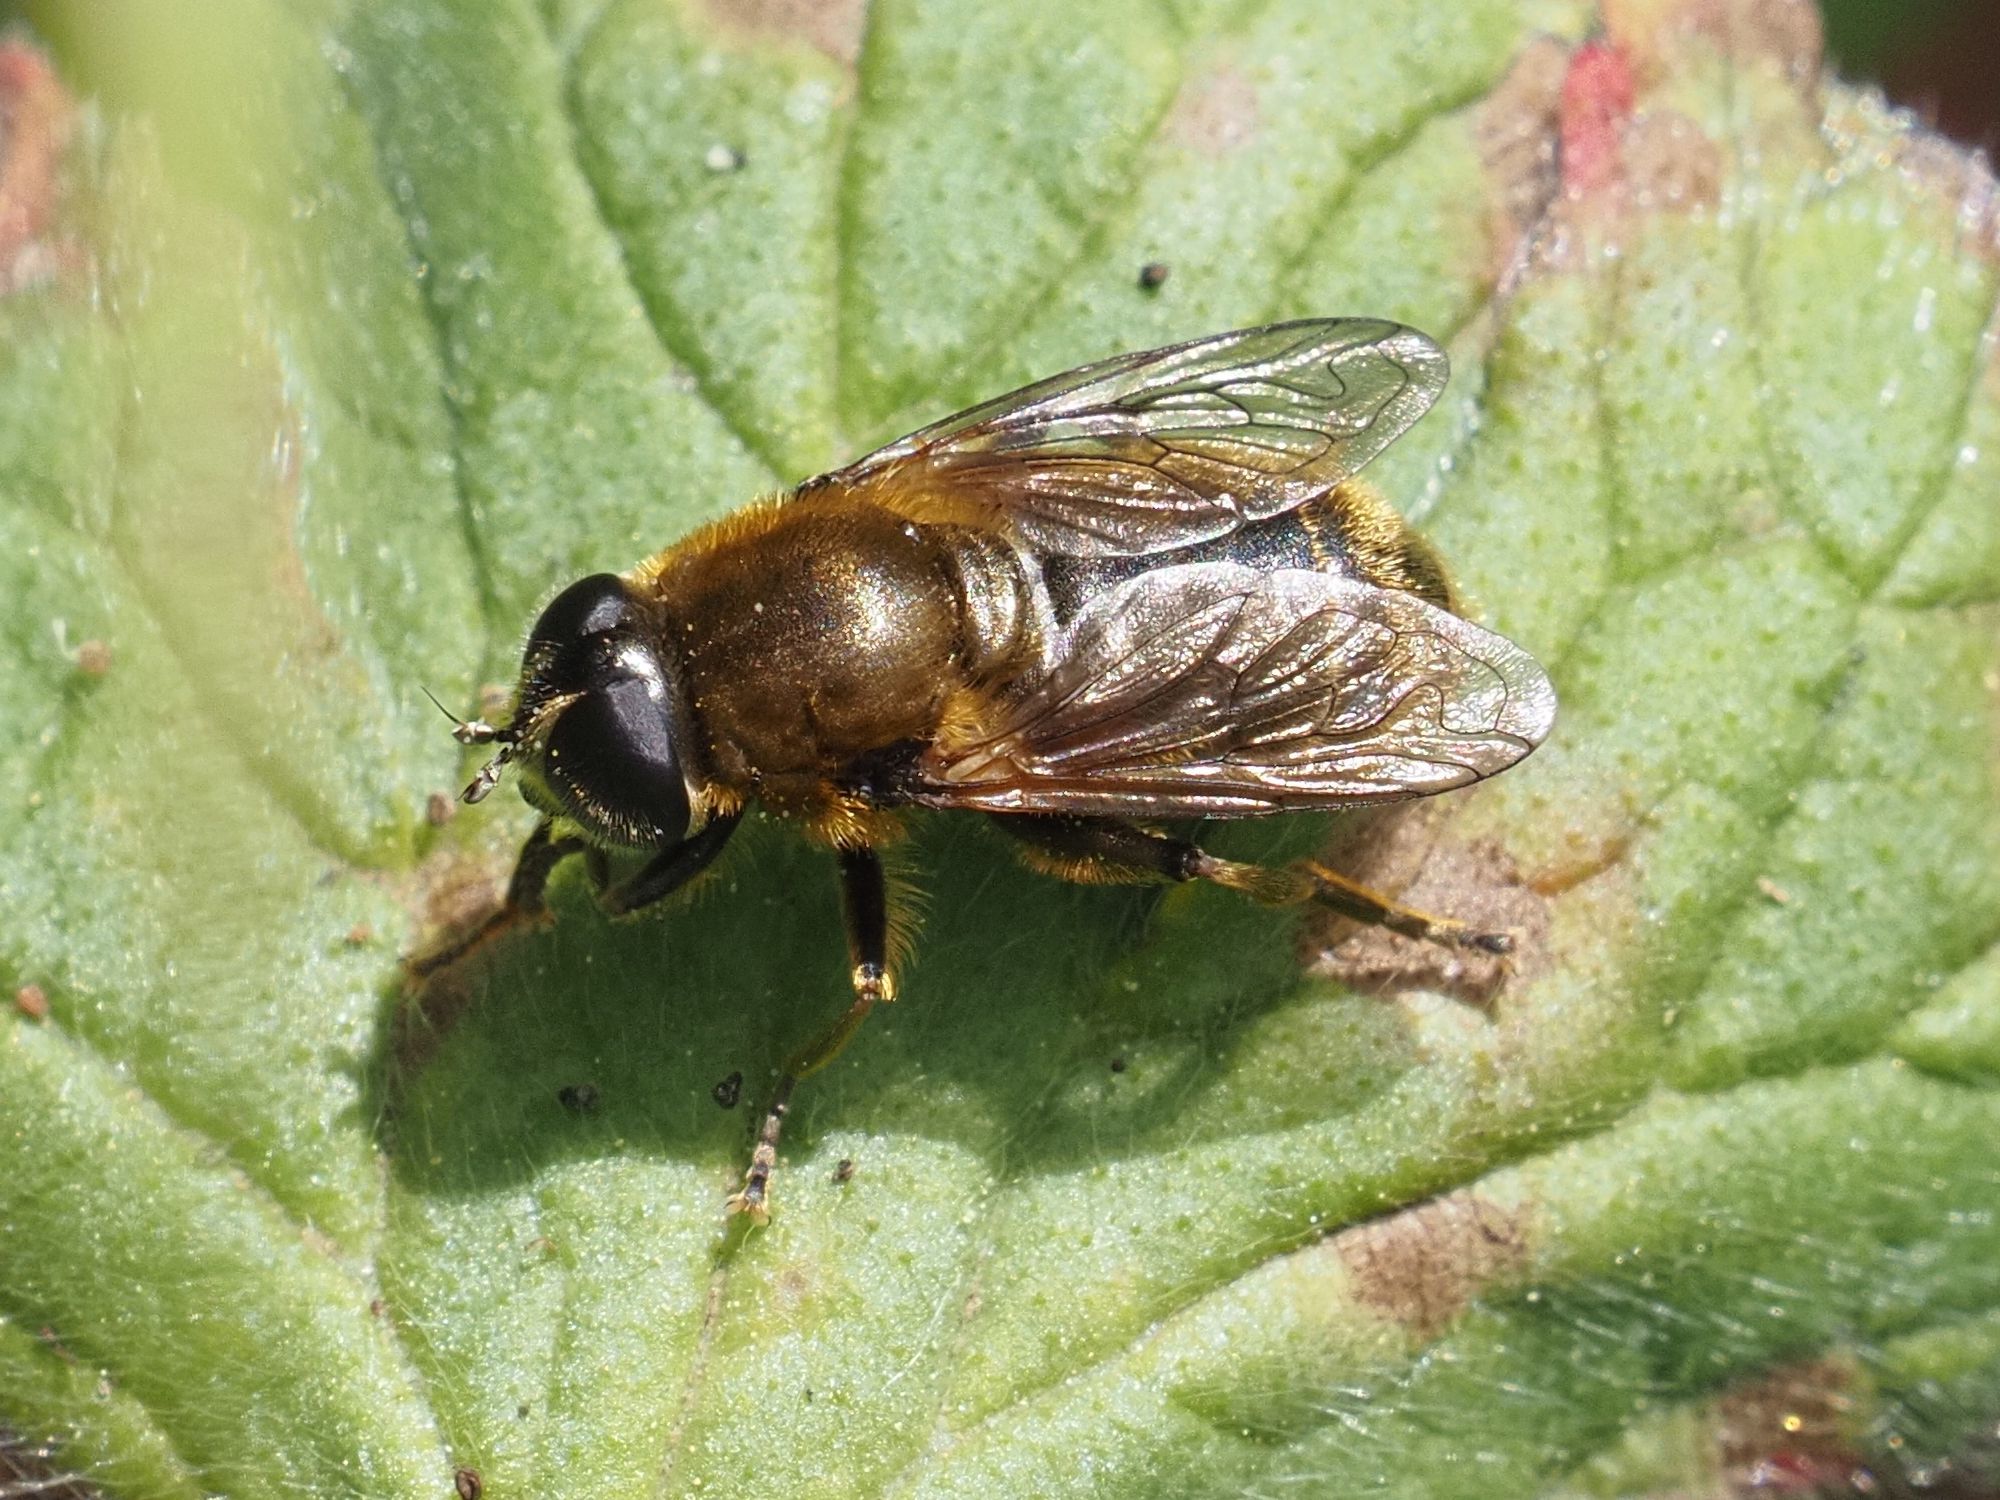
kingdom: Animalia
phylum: Arthropoda
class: Insecta
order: Diptera
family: Syrphidae
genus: Merodon
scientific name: Merodon rufus
